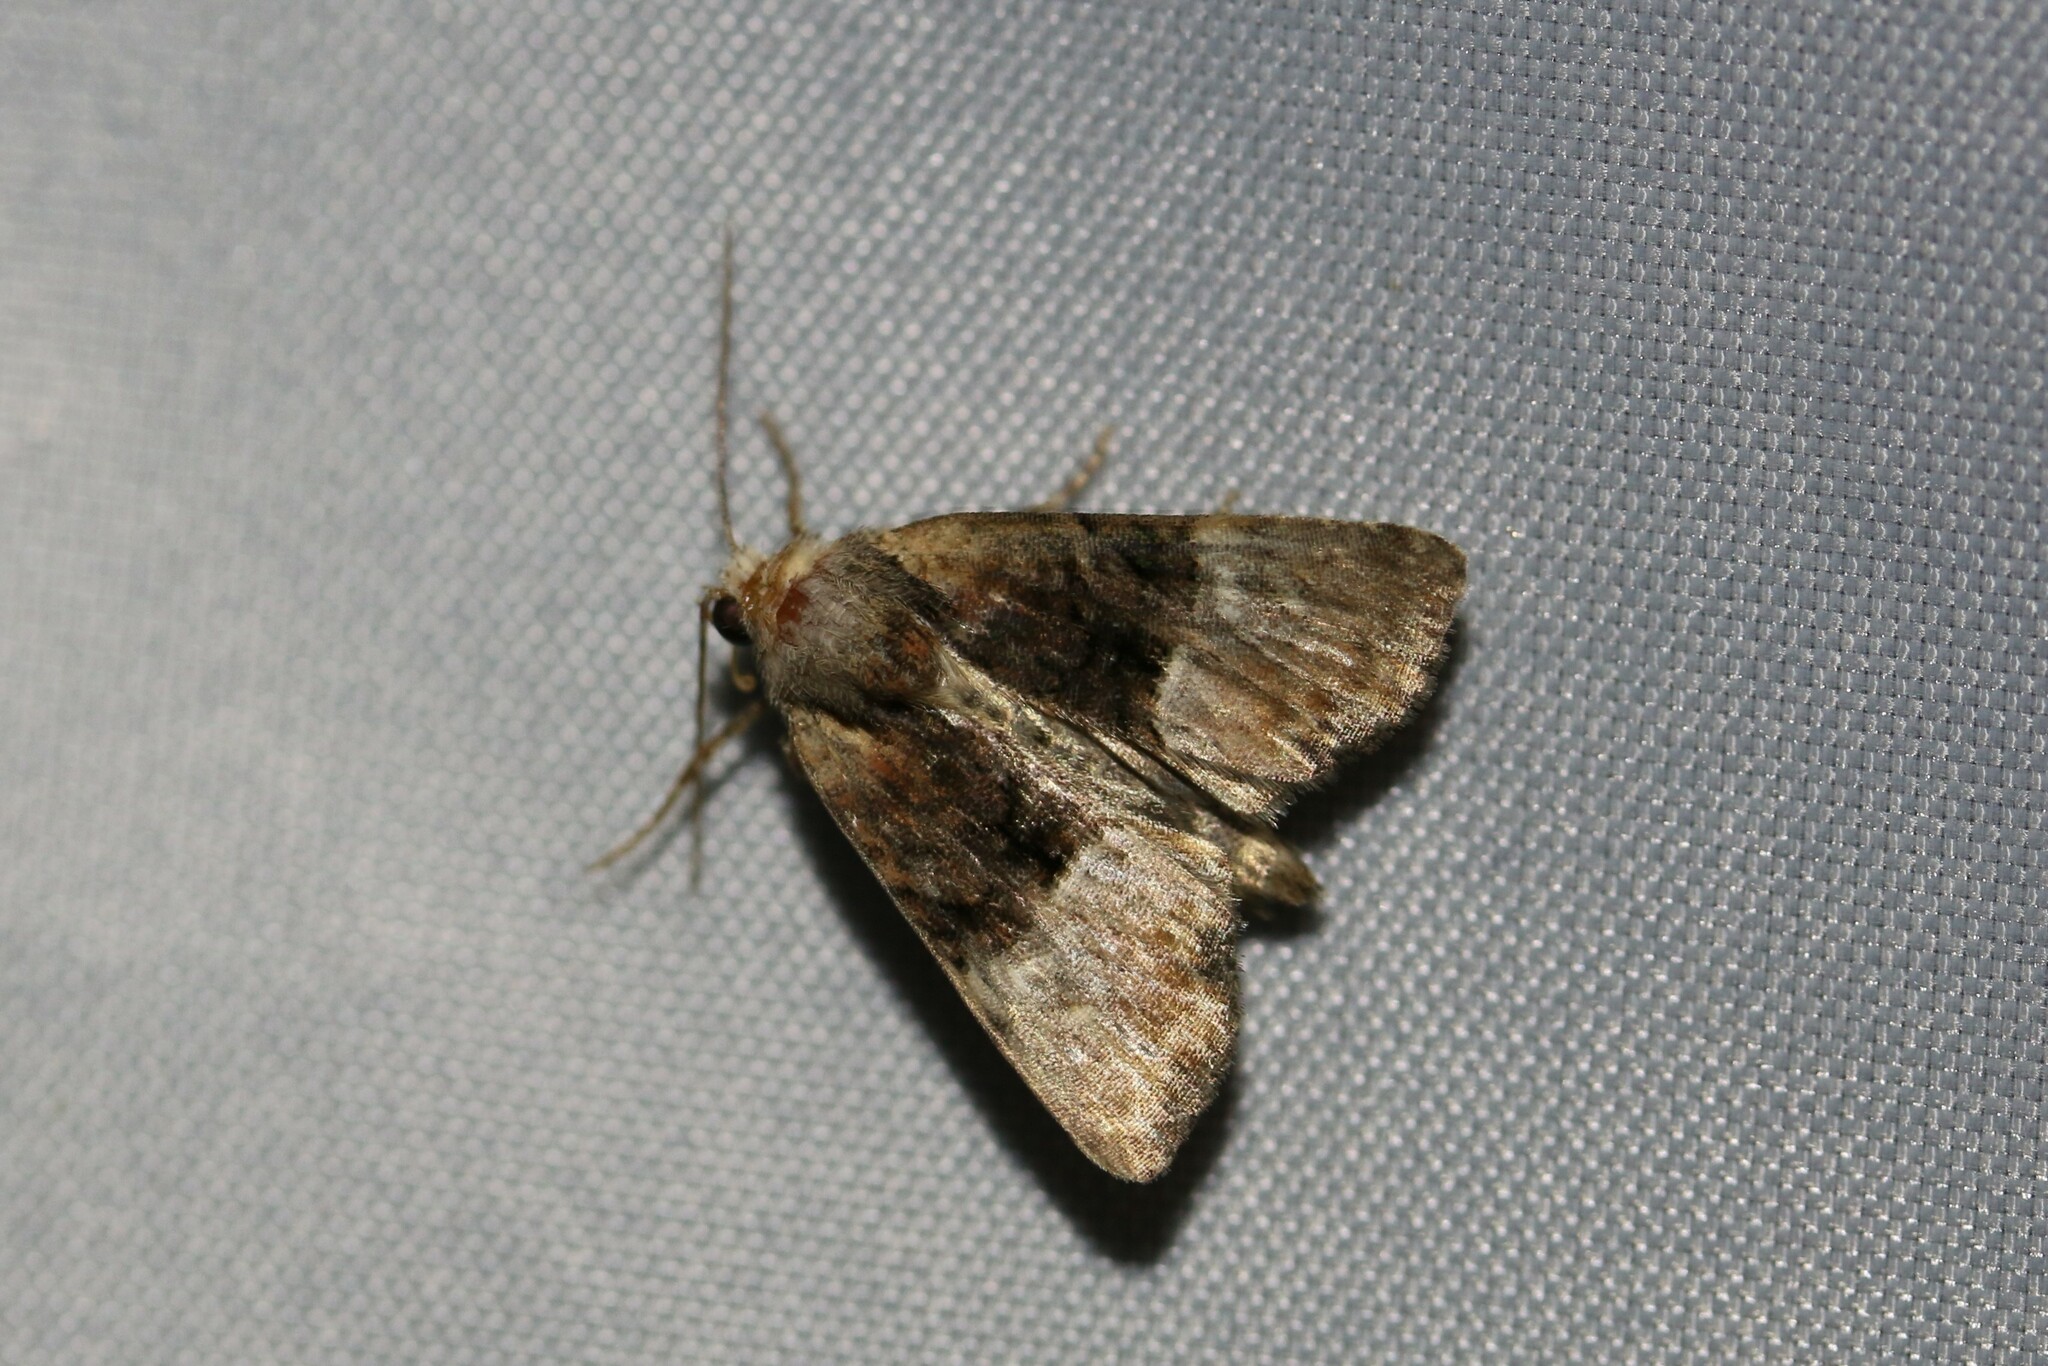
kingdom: Animalia
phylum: Arthropoda
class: Insecta
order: Lepidoptera
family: Noctuidae
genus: Mesoligia
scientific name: Mesoligia furuncula
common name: Cloaked minor
